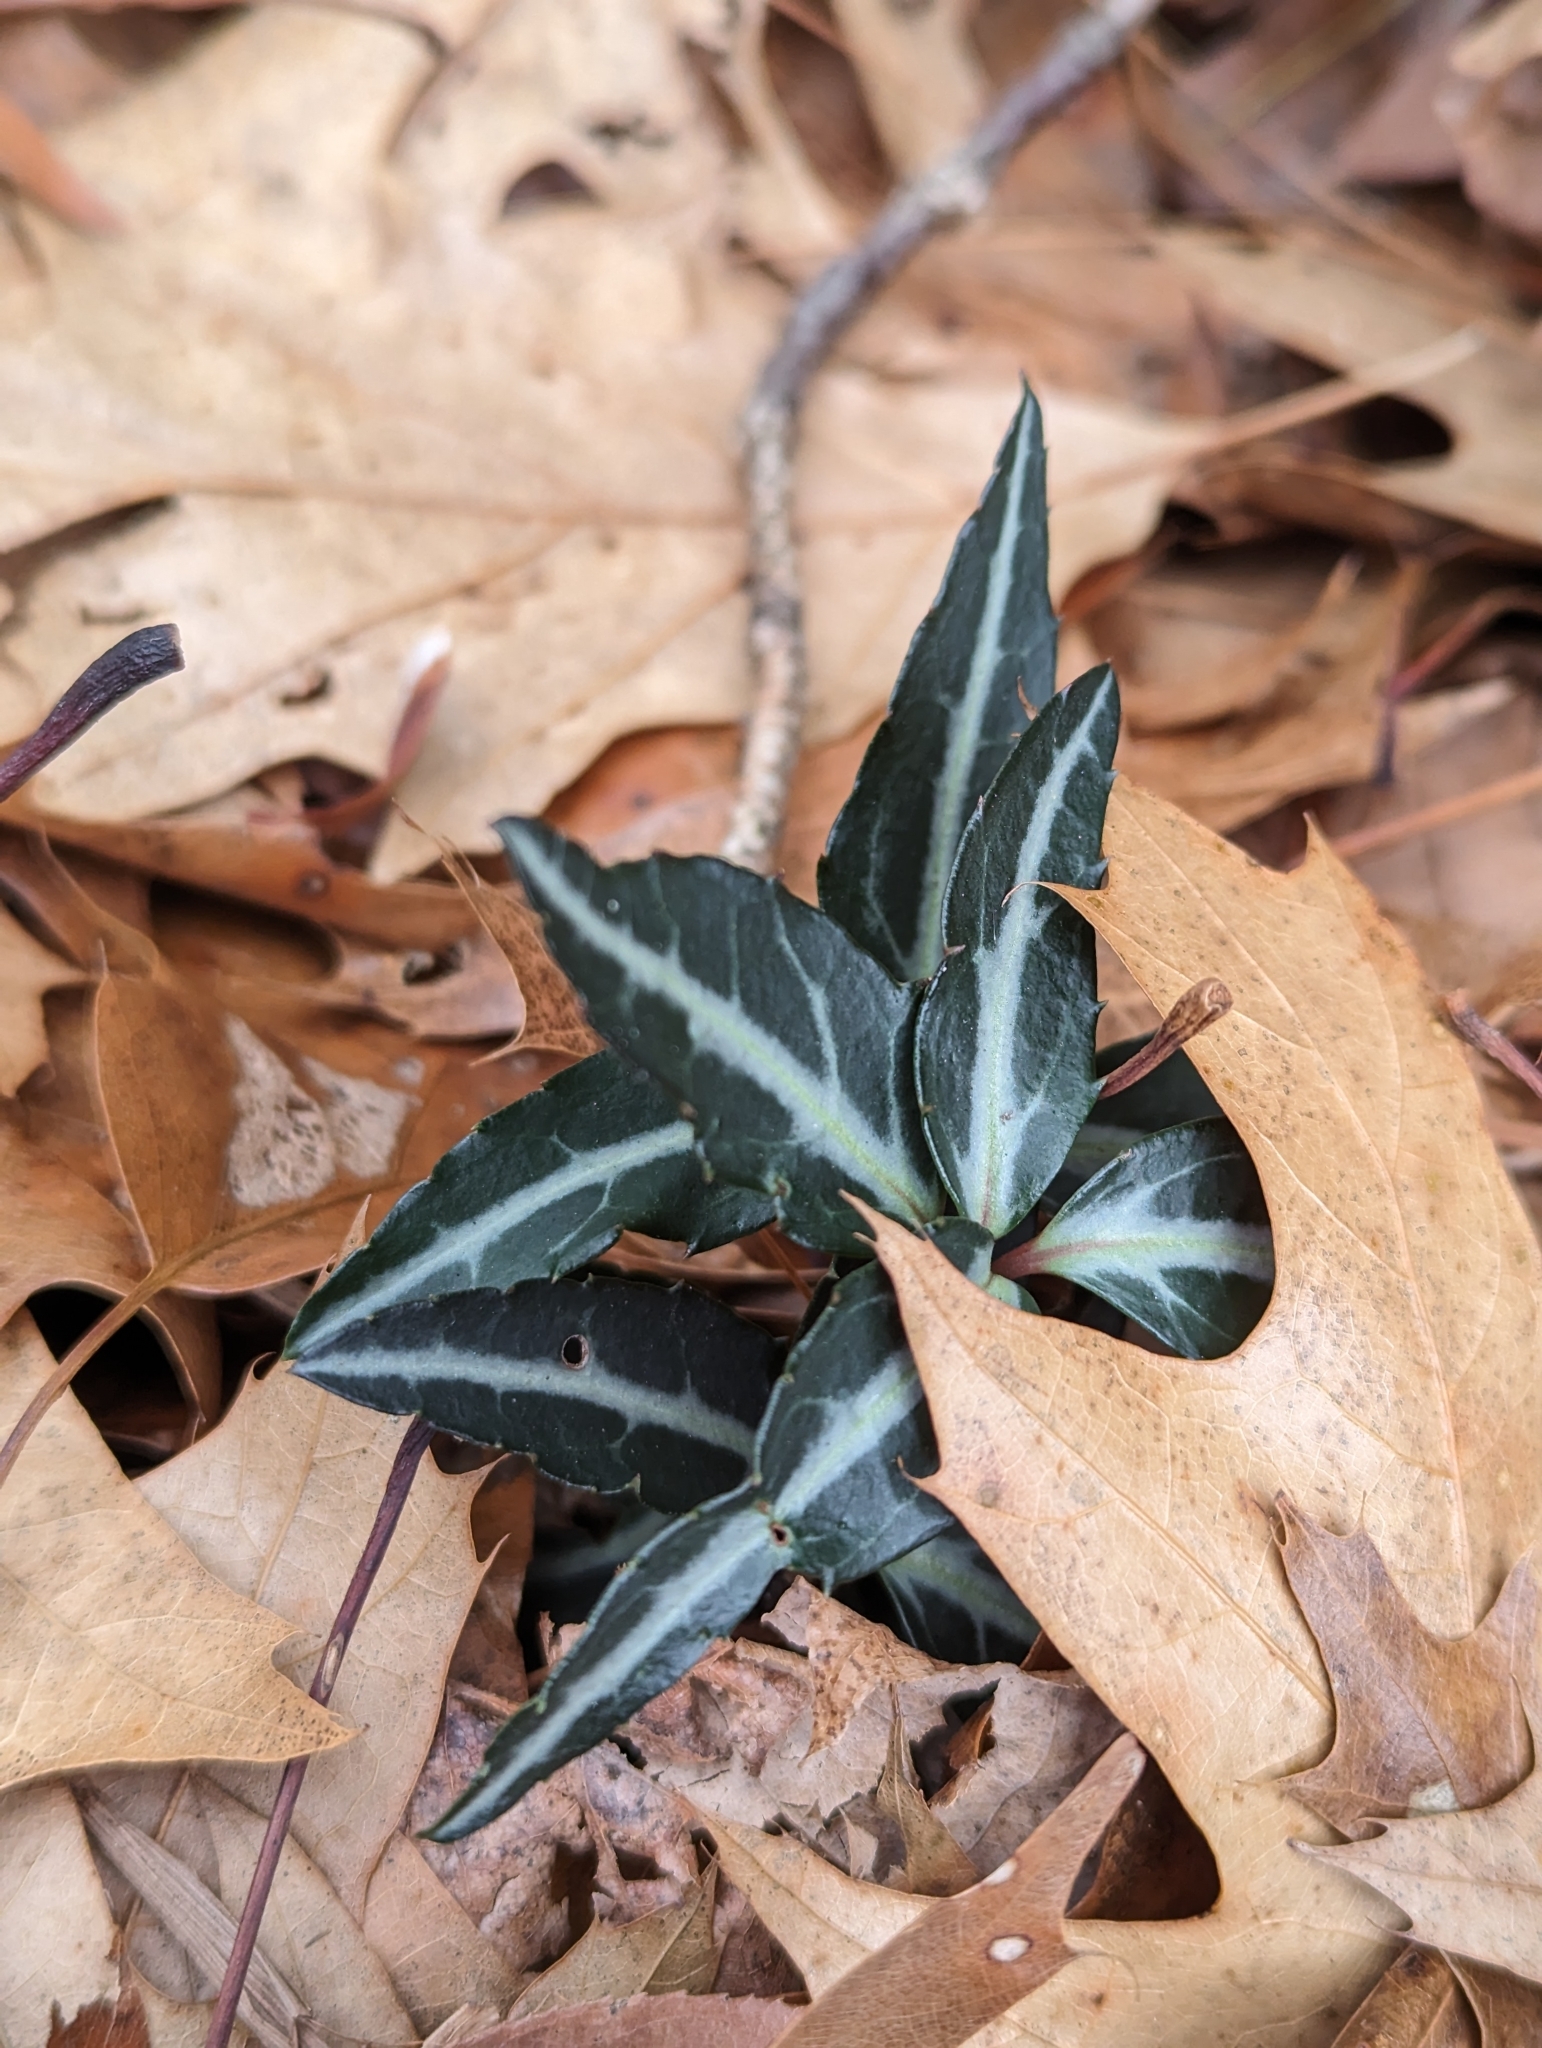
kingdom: Plantae
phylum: Tracheophyta
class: Magnoliopsida
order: Ericales
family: Ericaceae
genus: Chimaphila
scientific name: Chimaphila maculata
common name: Spotted pipsissewa
